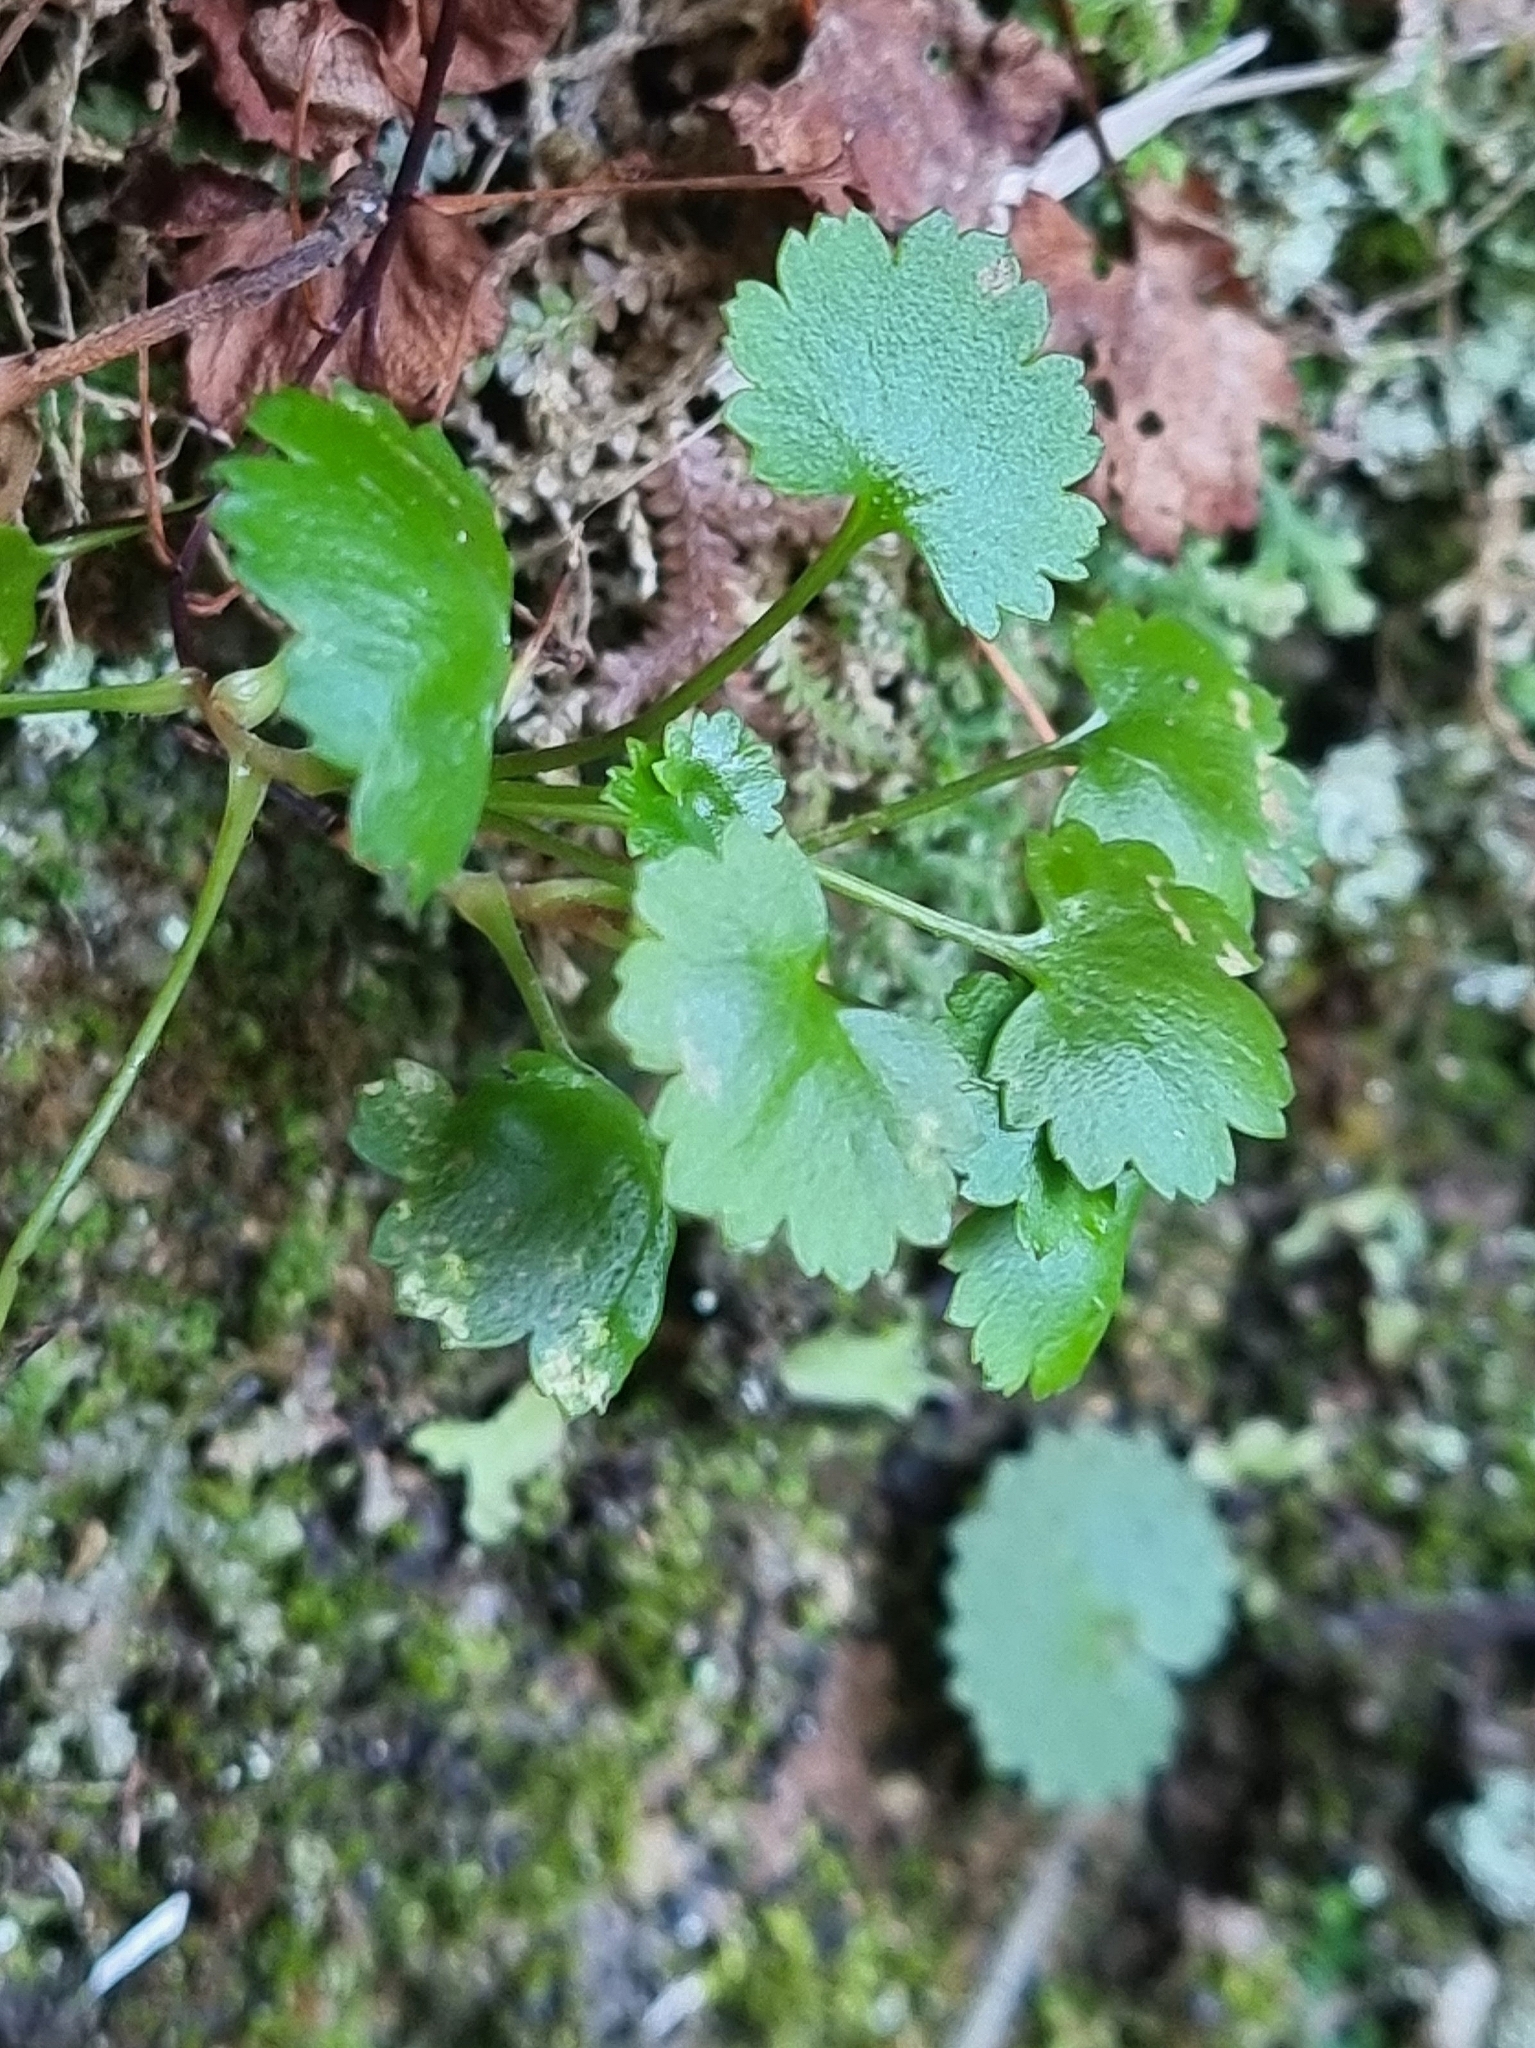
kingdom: Plantae
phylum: Tracheophyta
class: Magnoliopsida
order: Saxifragales
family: Saxifragaceae
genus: Saxifraga
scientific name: Saxifraga maderensis
